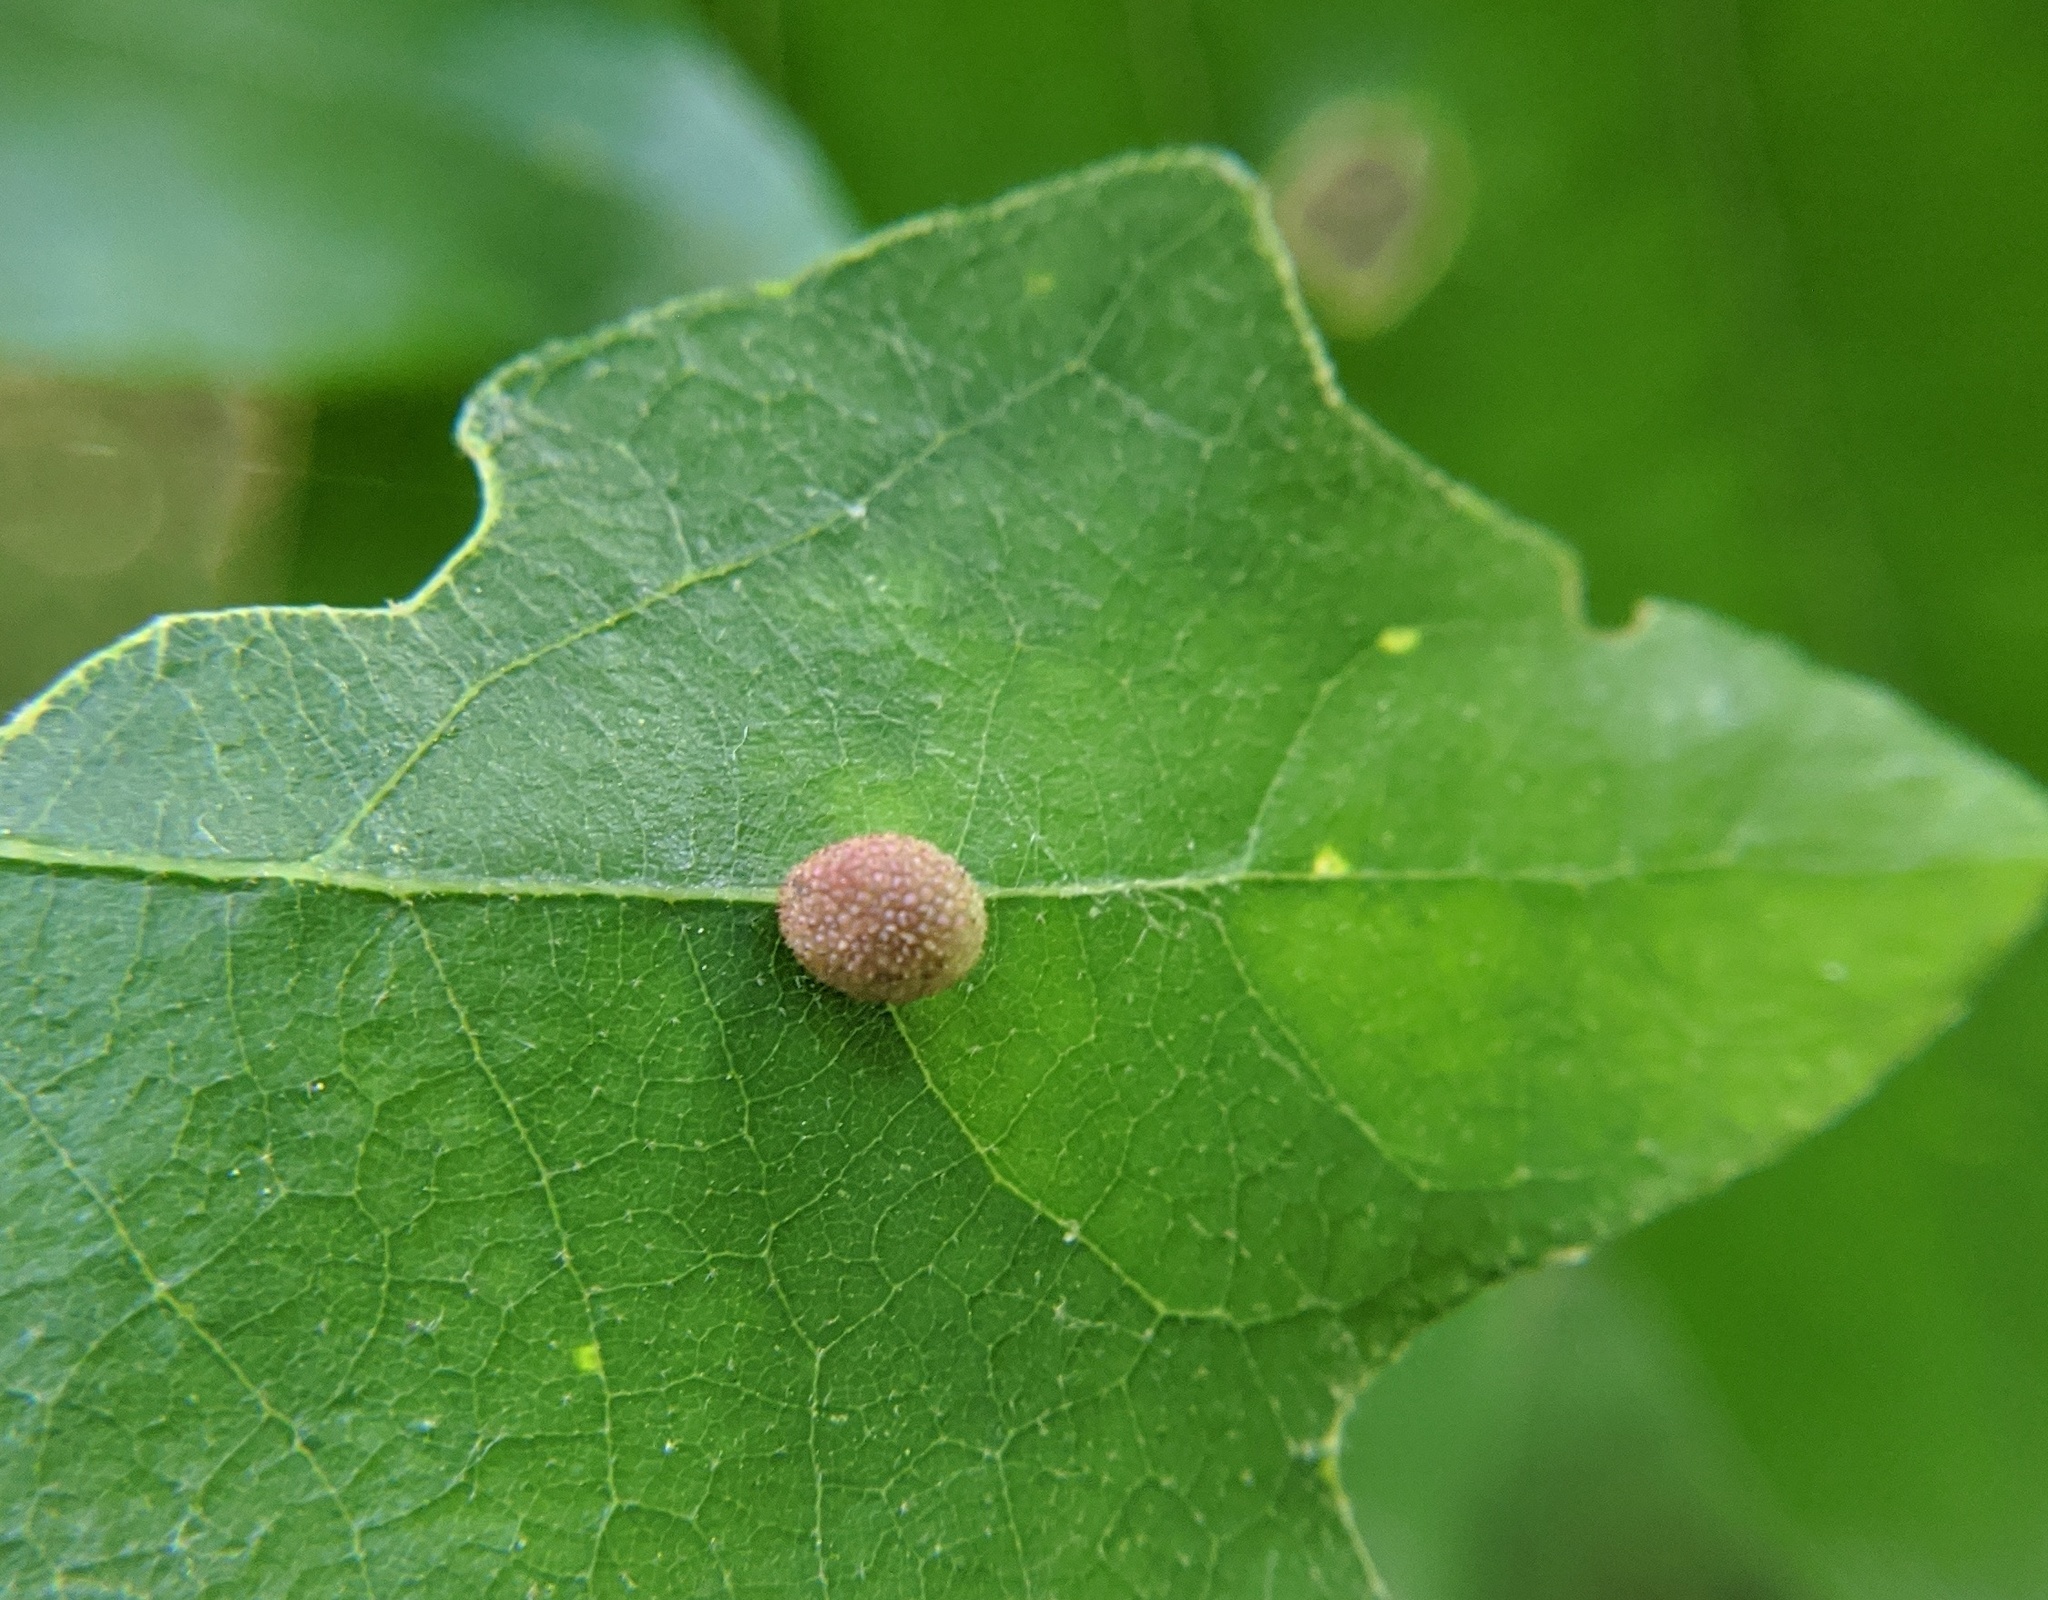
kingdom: Animalia
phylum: Arthropoda
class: Insecta
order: Hymenoptera
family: Cynipidae
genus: Acraspis
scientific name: Acraspis quercushirta
